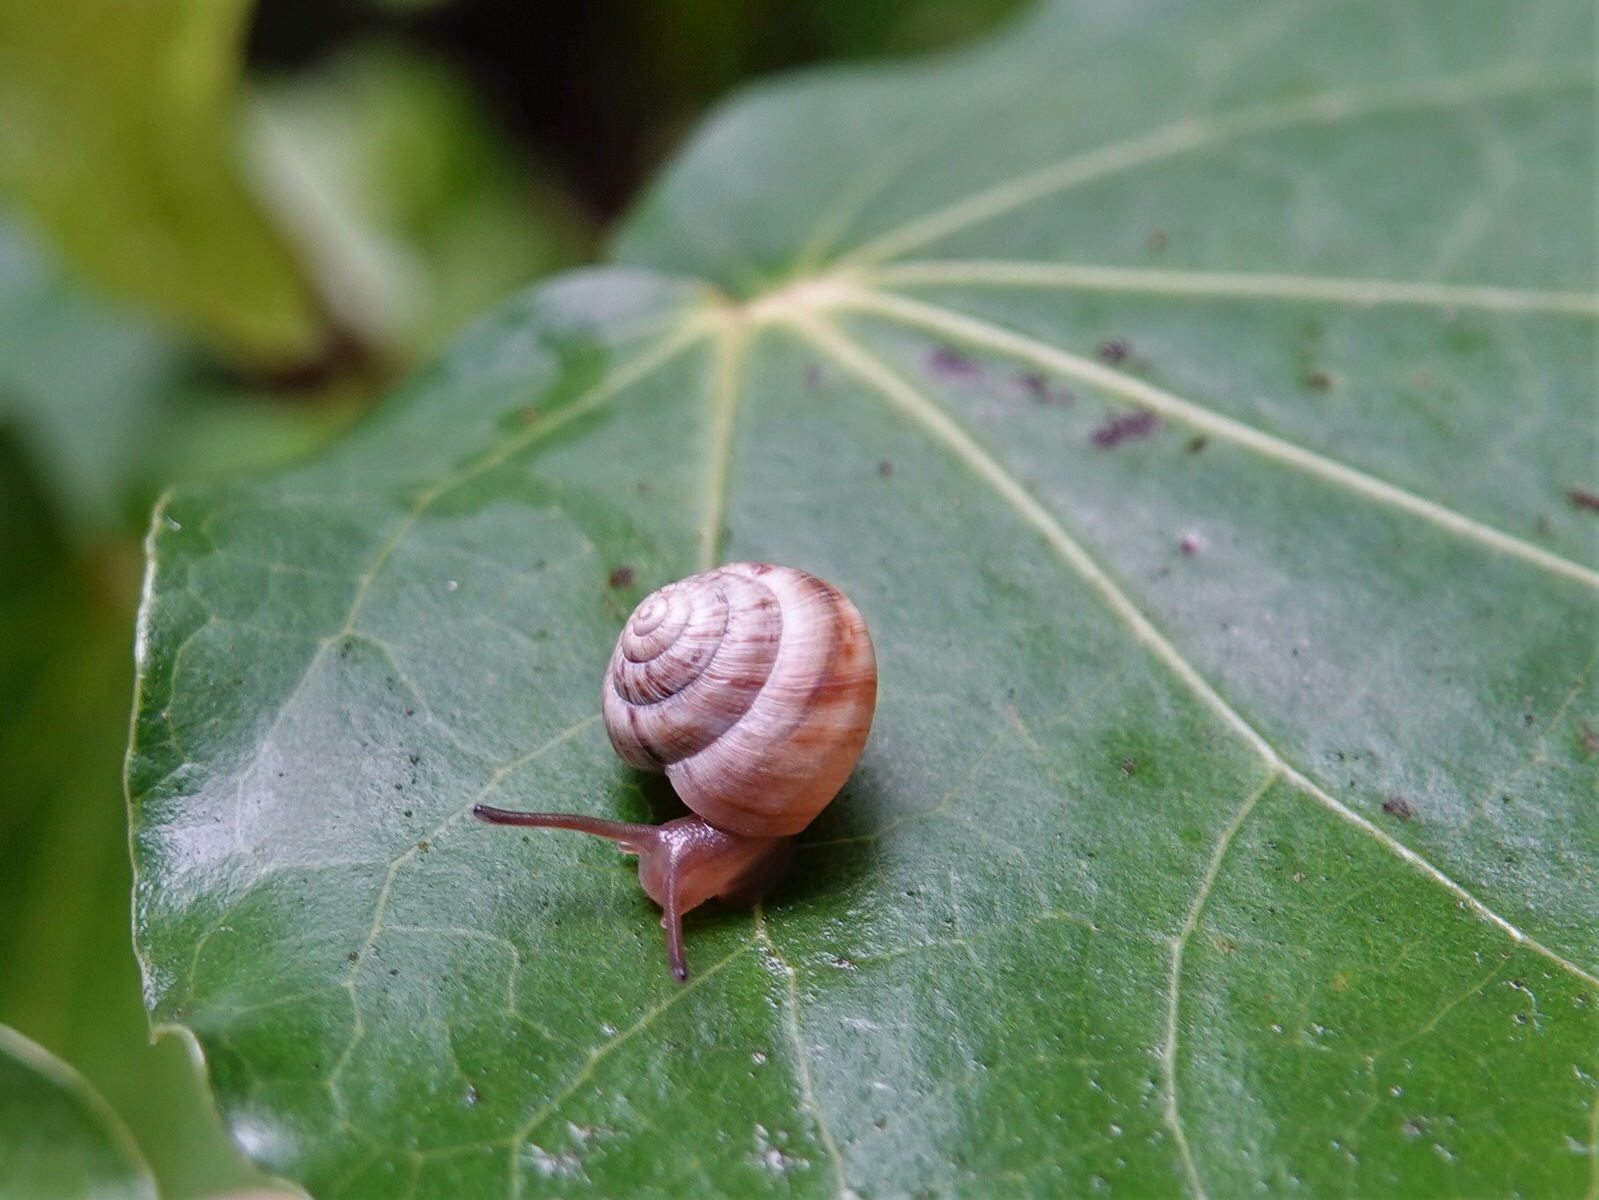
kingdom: Animalia
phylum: Mollusca
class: Gastropoda
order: Stylommatophora
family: Charopidae
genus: Serpho
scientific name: Serpho
